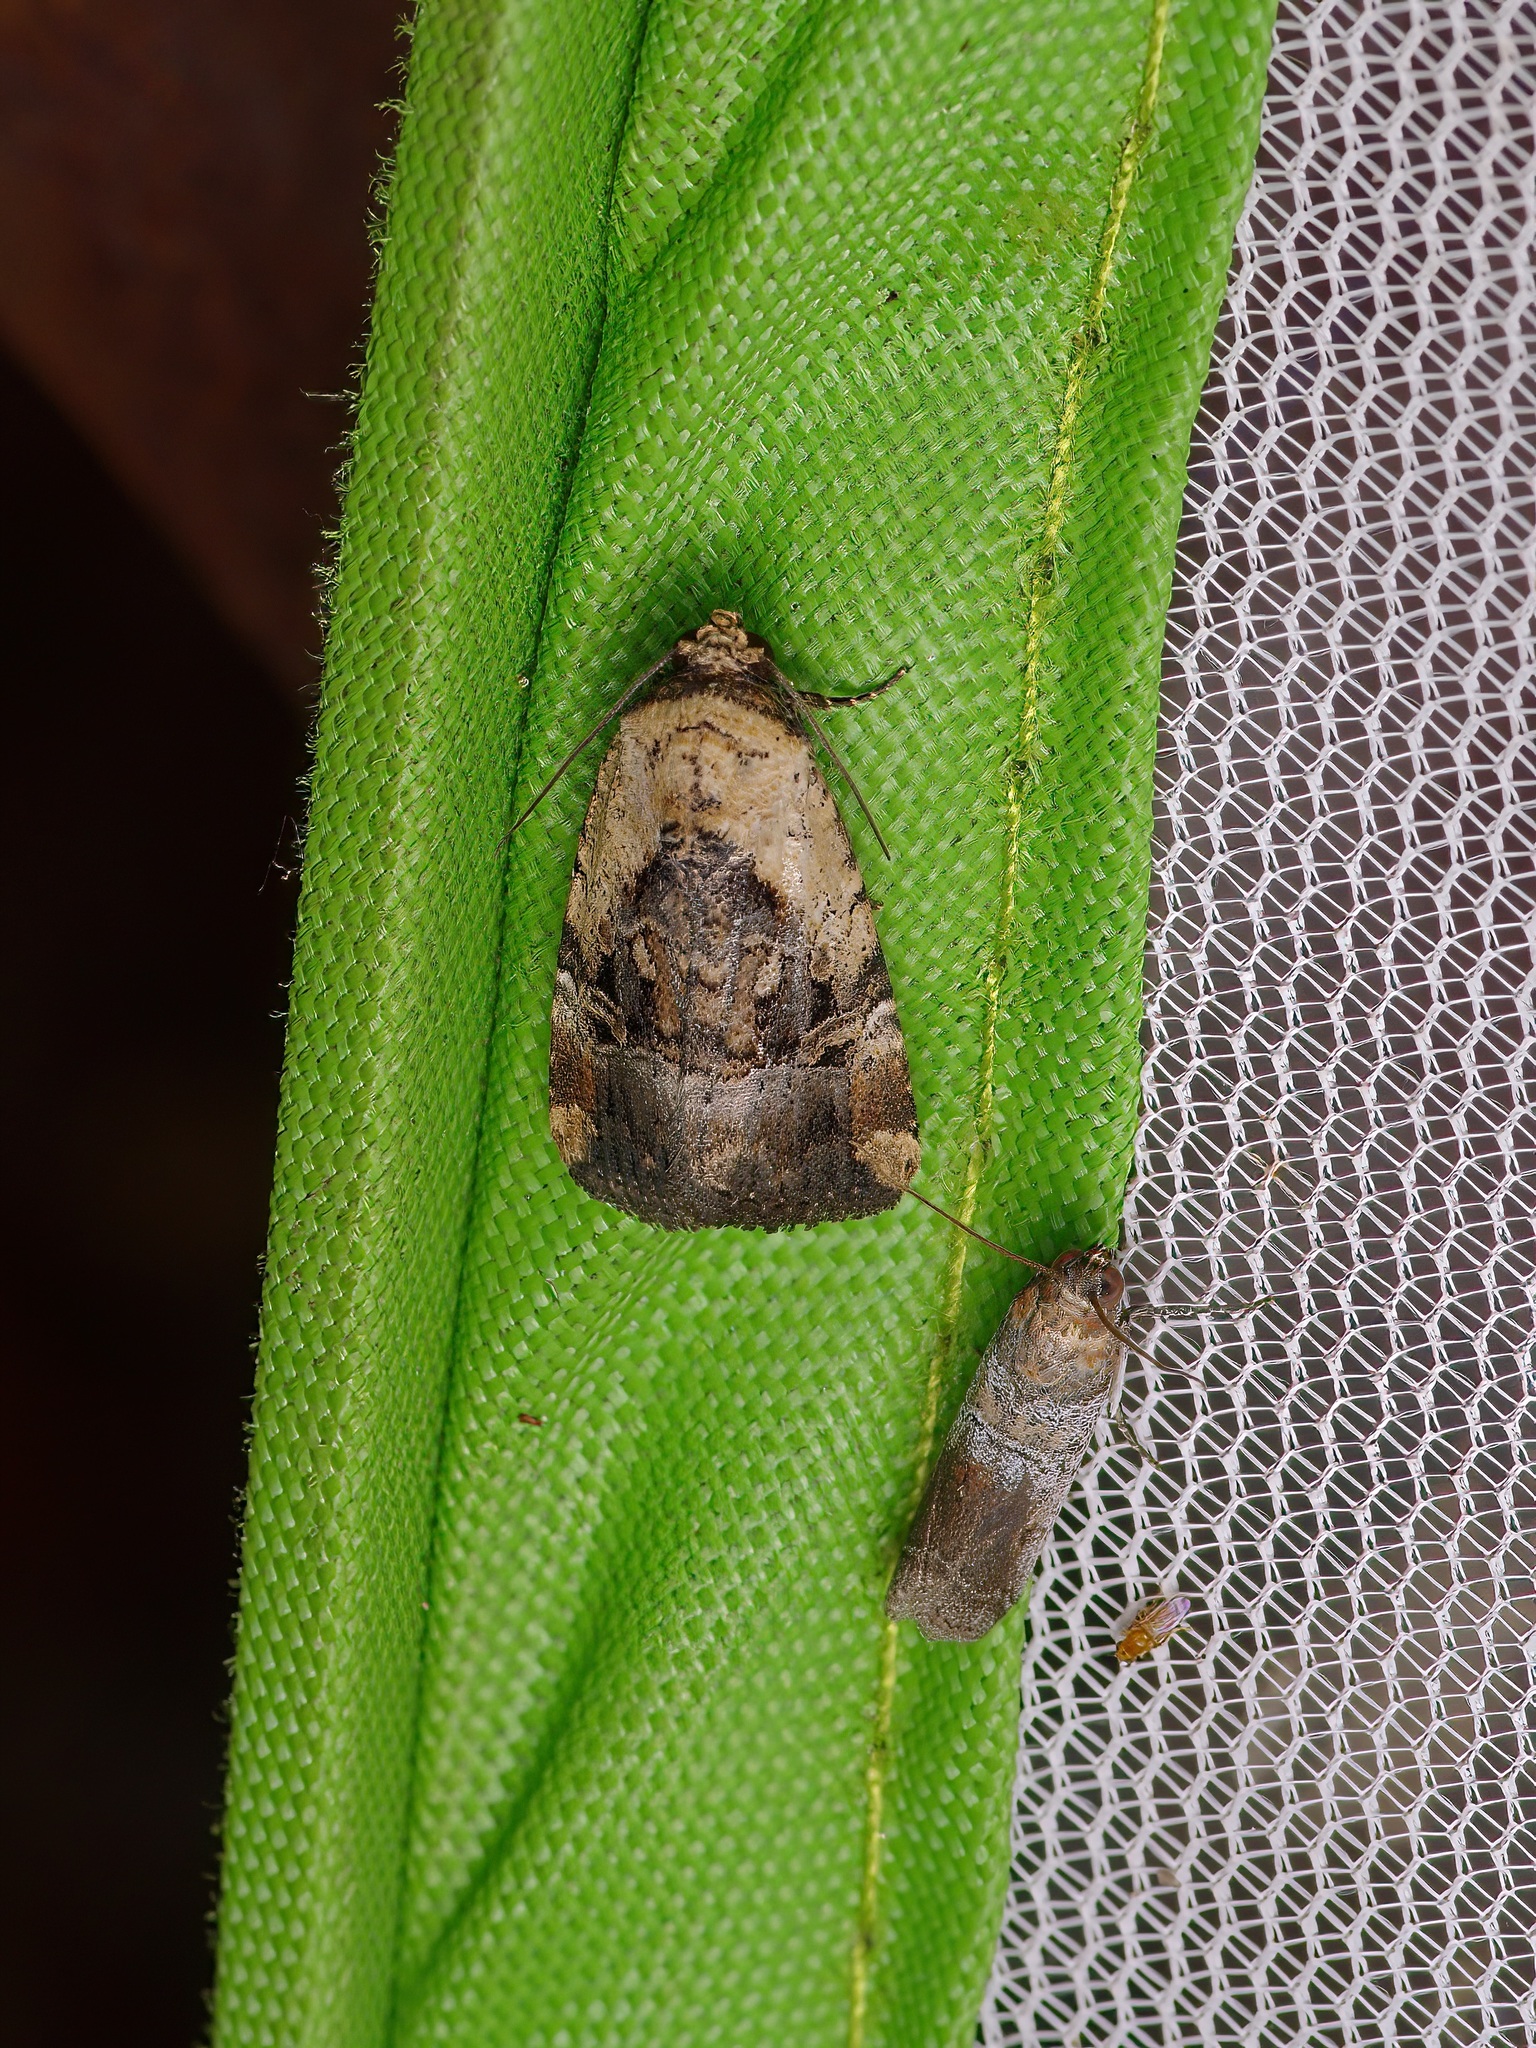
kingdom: Animalia
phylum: Arthropoda
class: Insecta
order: Lepidoptera
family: Noctuidae
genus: Elaphria
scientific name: Elaphria chalcedonia
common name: Chalcedony midget
